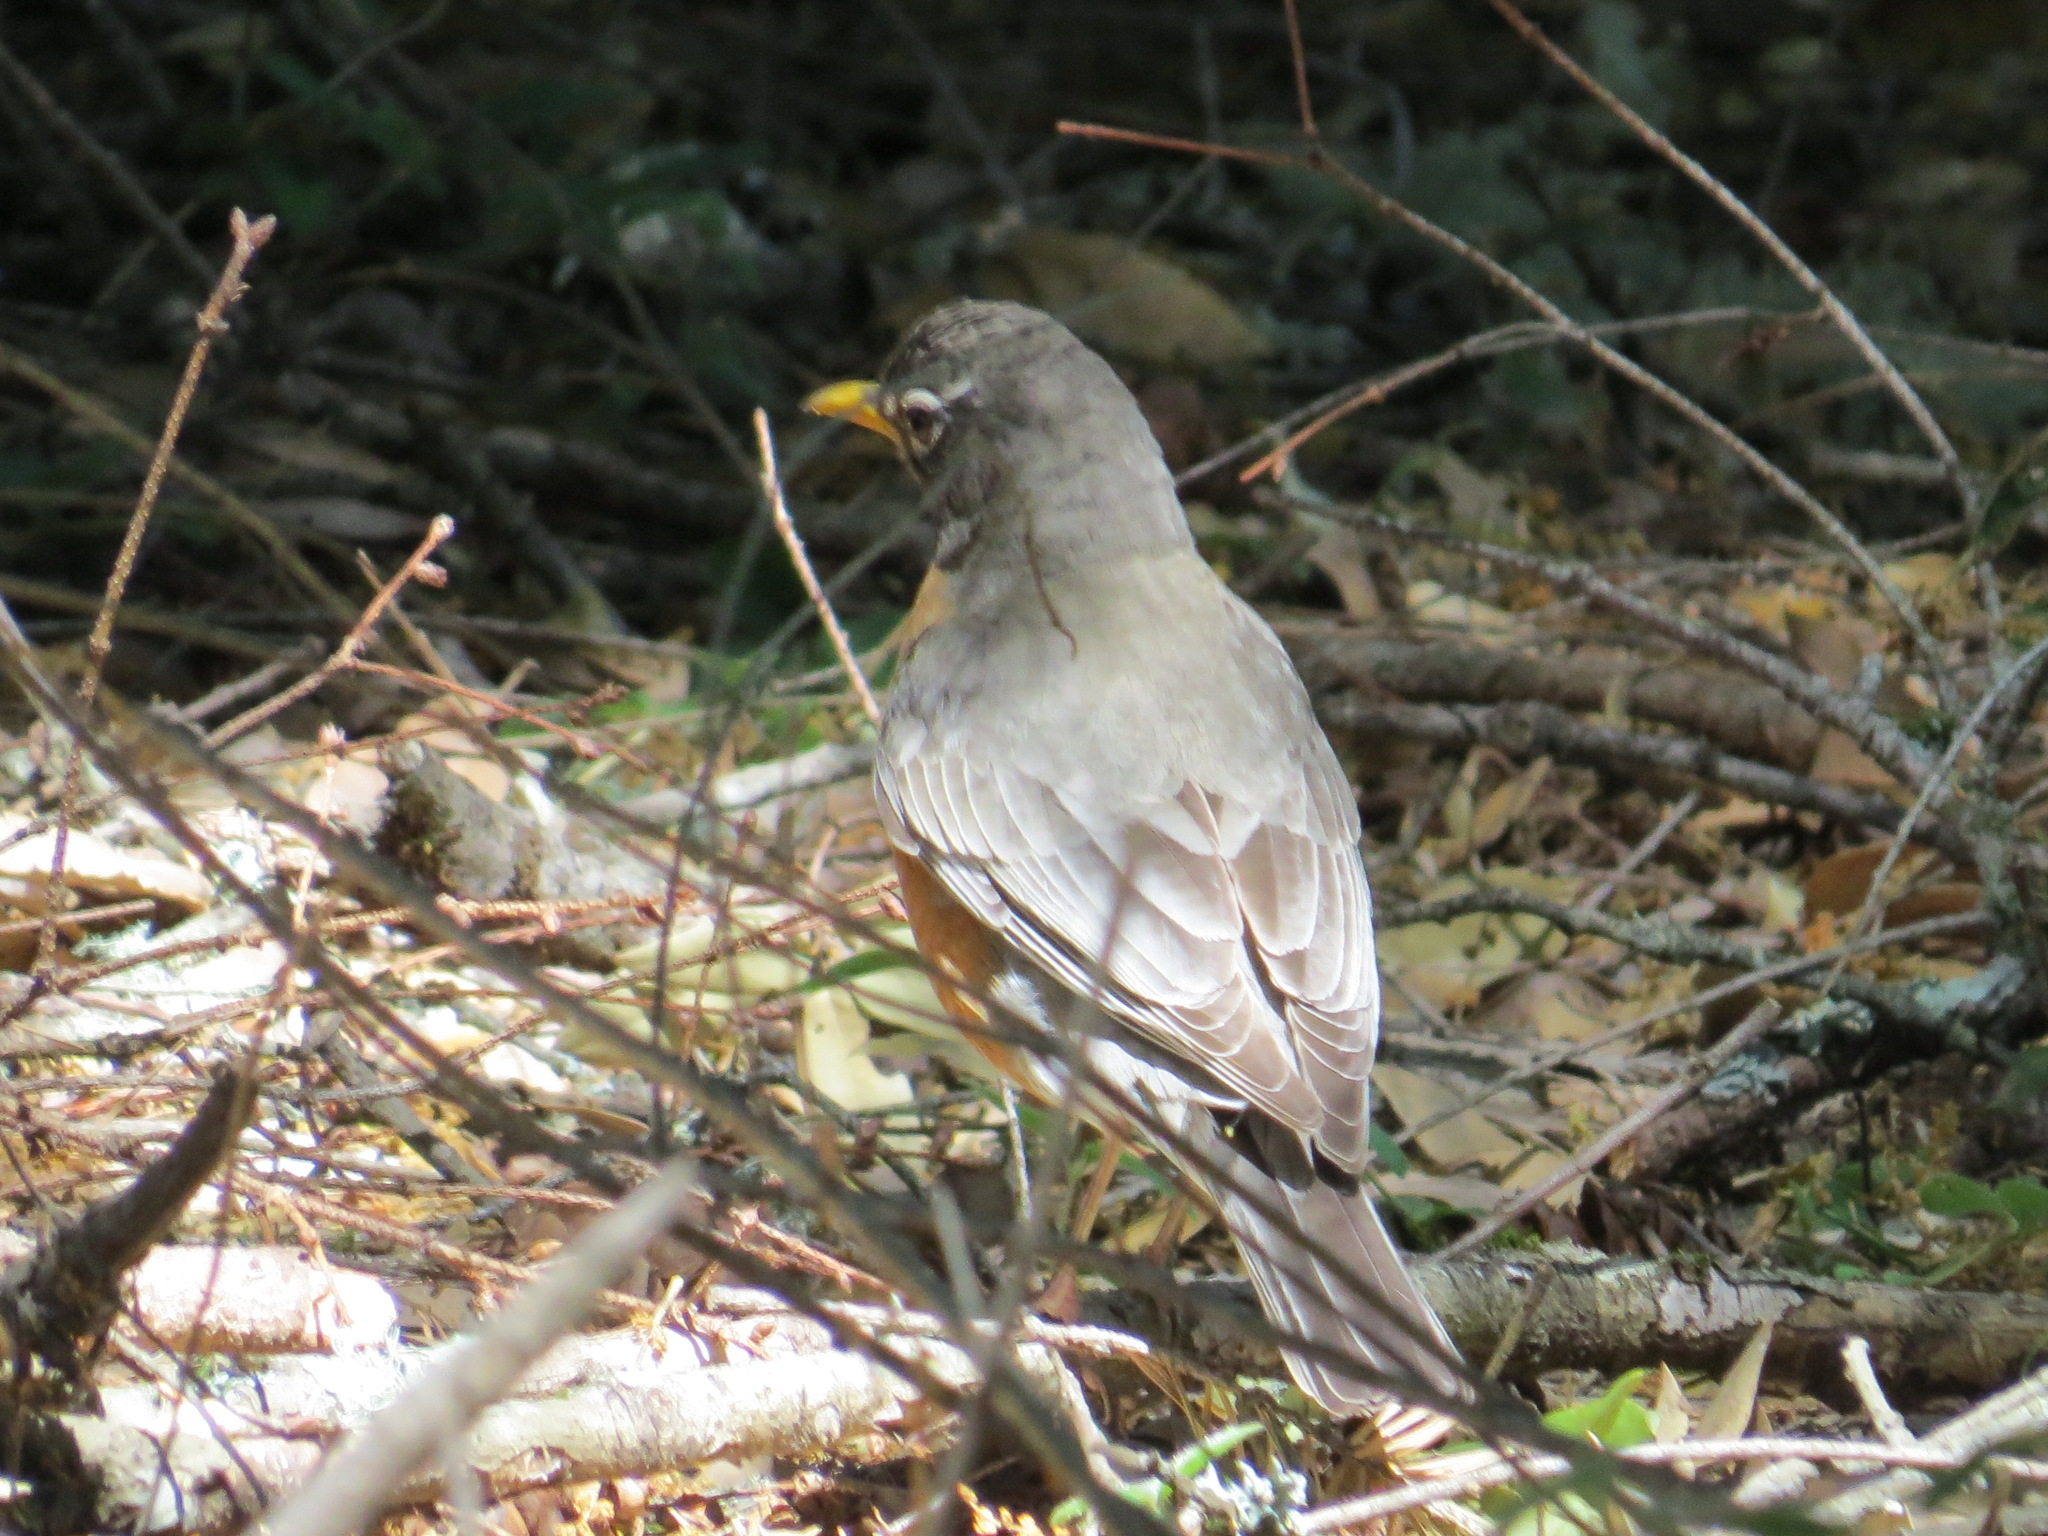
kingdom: Animalia
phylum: Chordata
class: Aves
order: Passeriformes
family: Turdidae
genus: Turdus
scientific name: Turdus migratorius
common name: American robin
